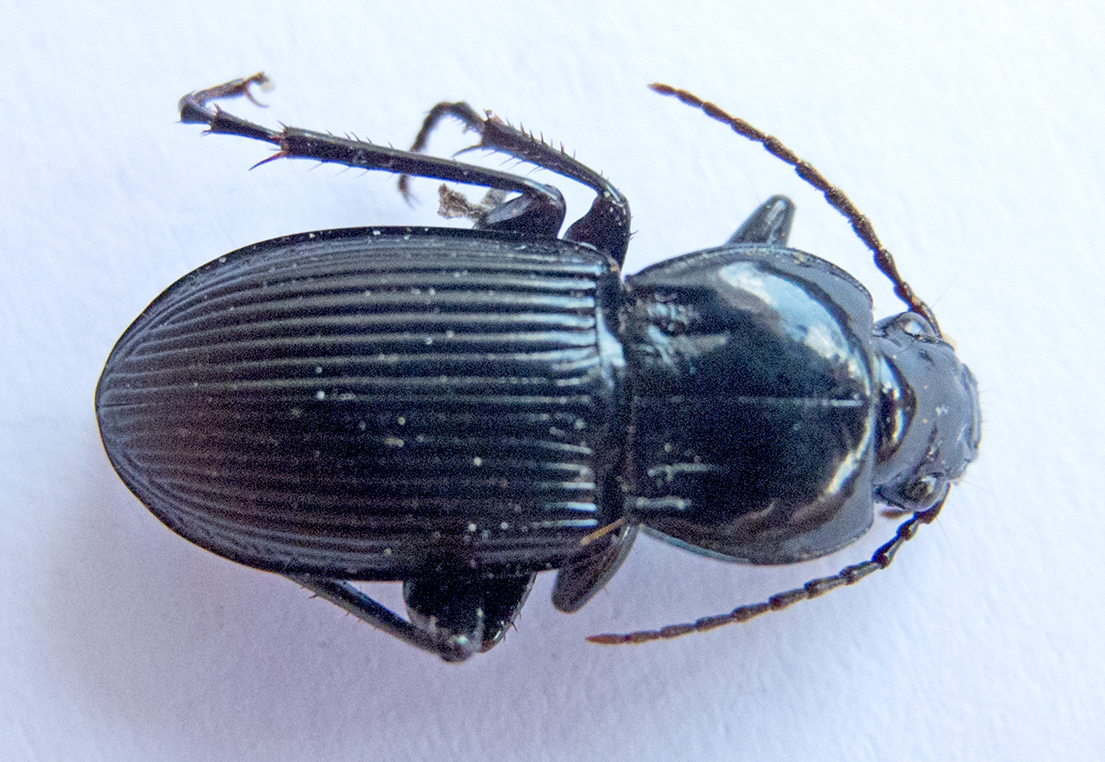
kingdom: Animalia
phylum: Arthropoda
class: Insecta
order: Coleoptera
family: Carabidae
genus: Pterostichus
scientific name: Pterostichus melas
